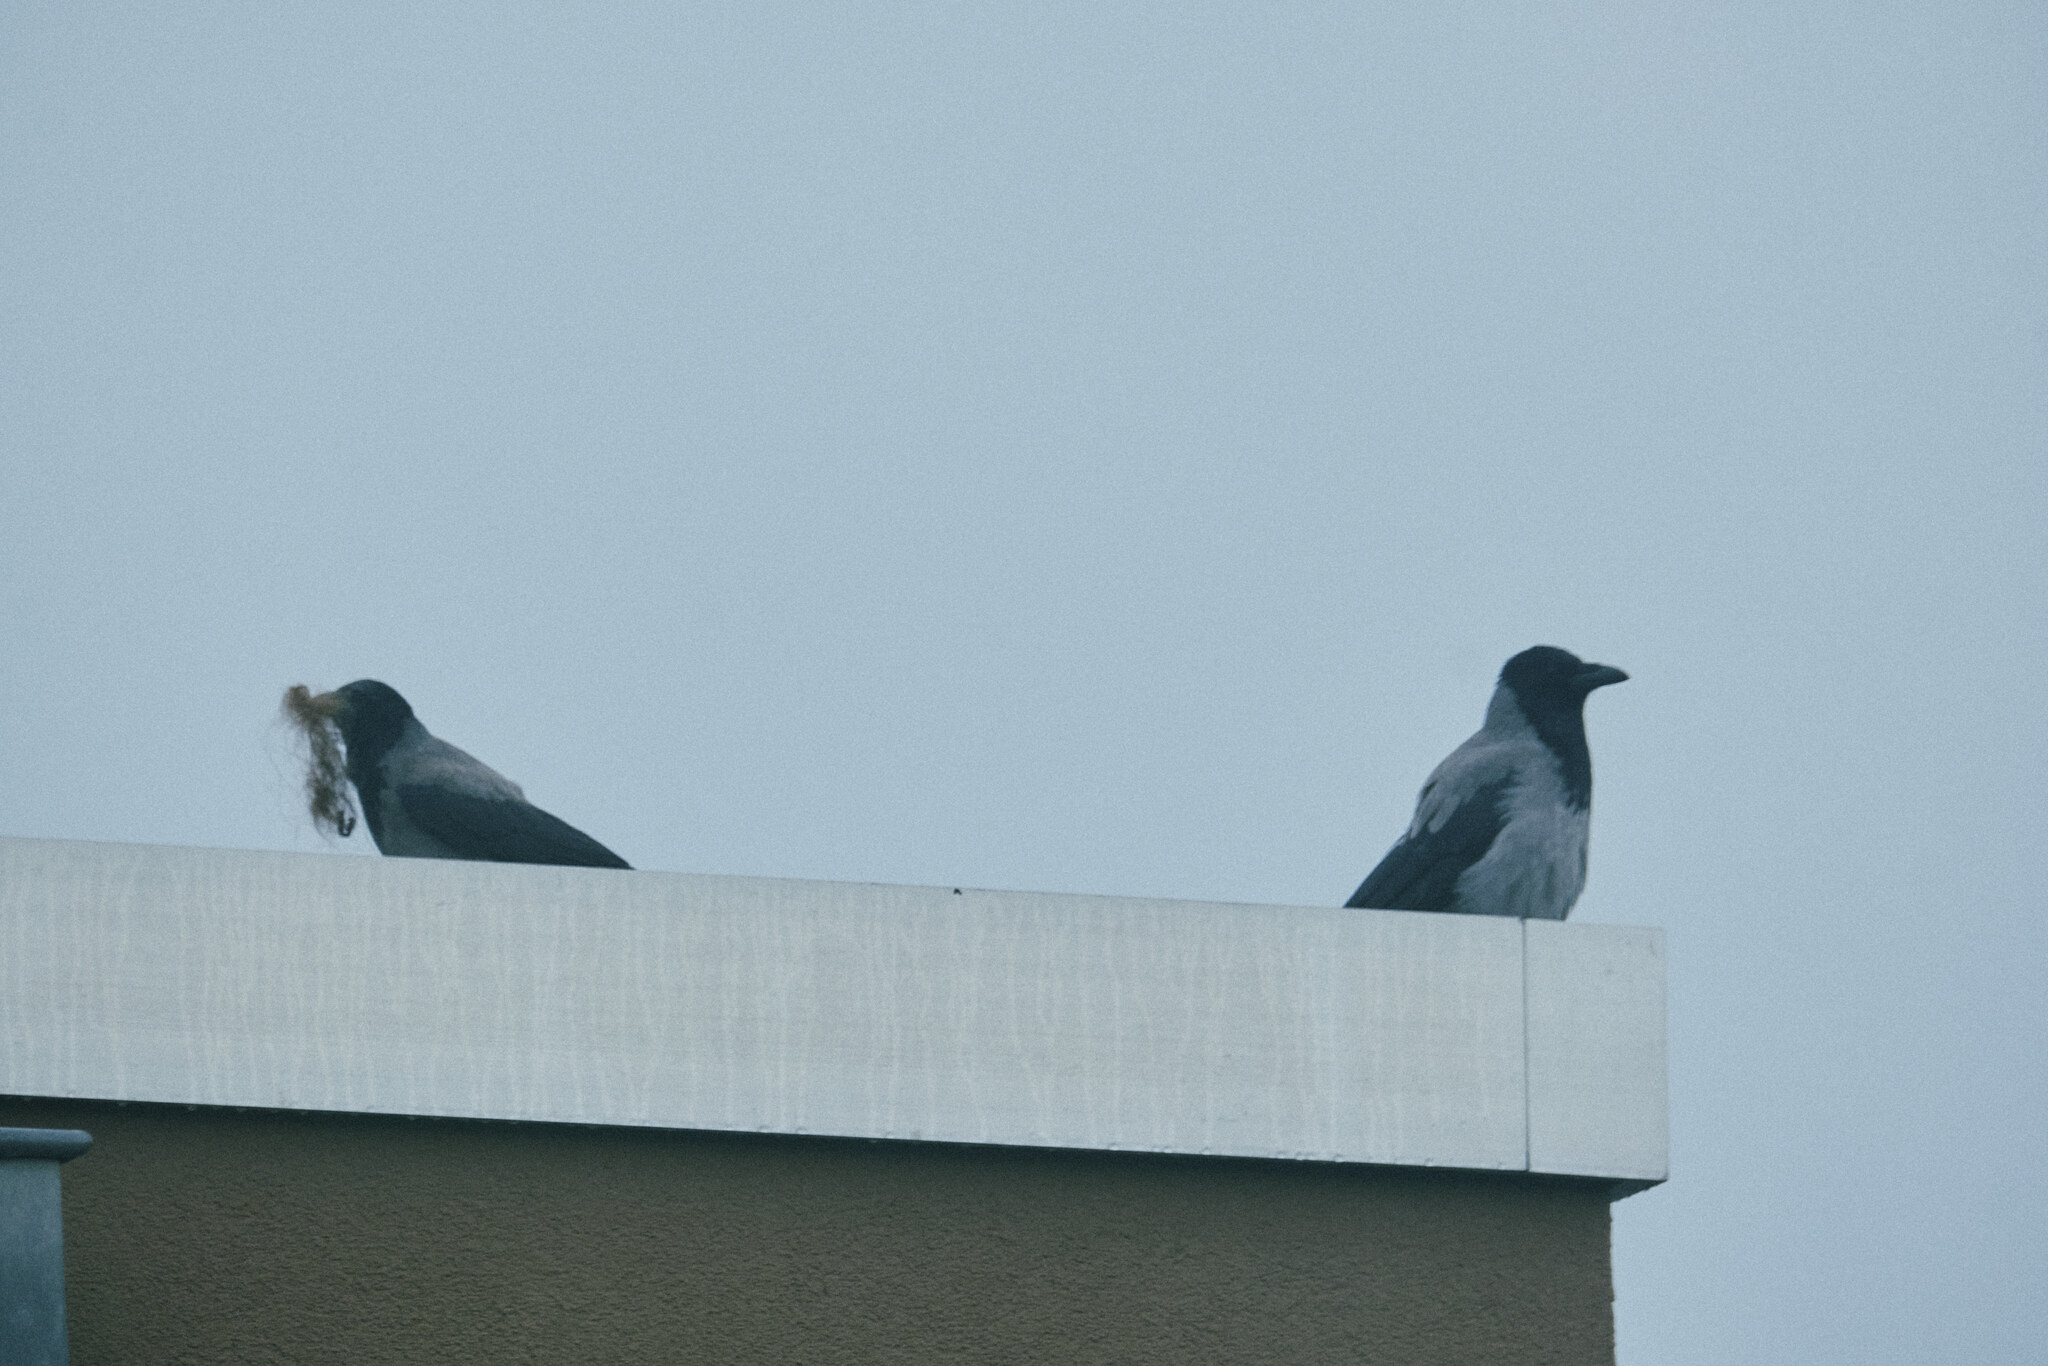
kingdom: Animalia
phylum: Chordata
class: Aves
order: Passeriformes
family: Corvidae
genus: Corvus
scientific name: Corvus cornix
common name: Hooded crow
